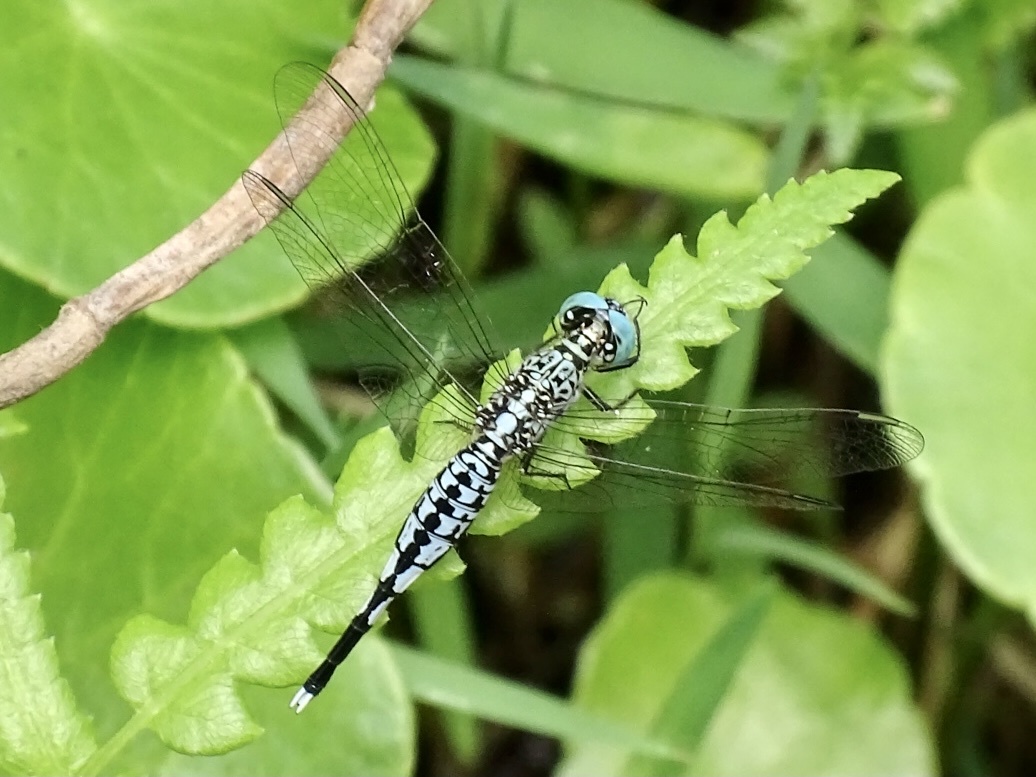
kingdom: Animalia
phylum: Arthropoda
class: Insecta
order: Odonata
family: Libellulidae
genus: Acisoma
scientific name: Acisoma panorpoides
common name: Asian pintail
